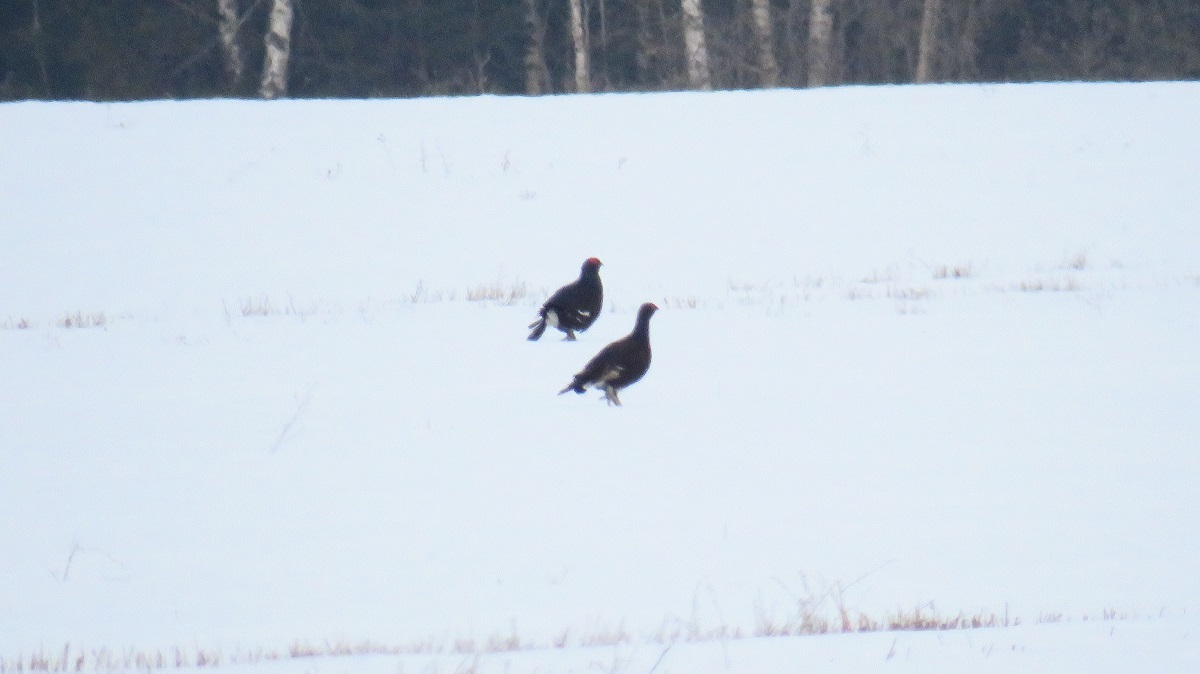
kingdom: Animalia
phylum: Chordata
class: Aves
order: Galliformes
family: Phasianidae
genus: Lyrurus
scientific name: Lyrurus tetrix
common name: Black grouse
